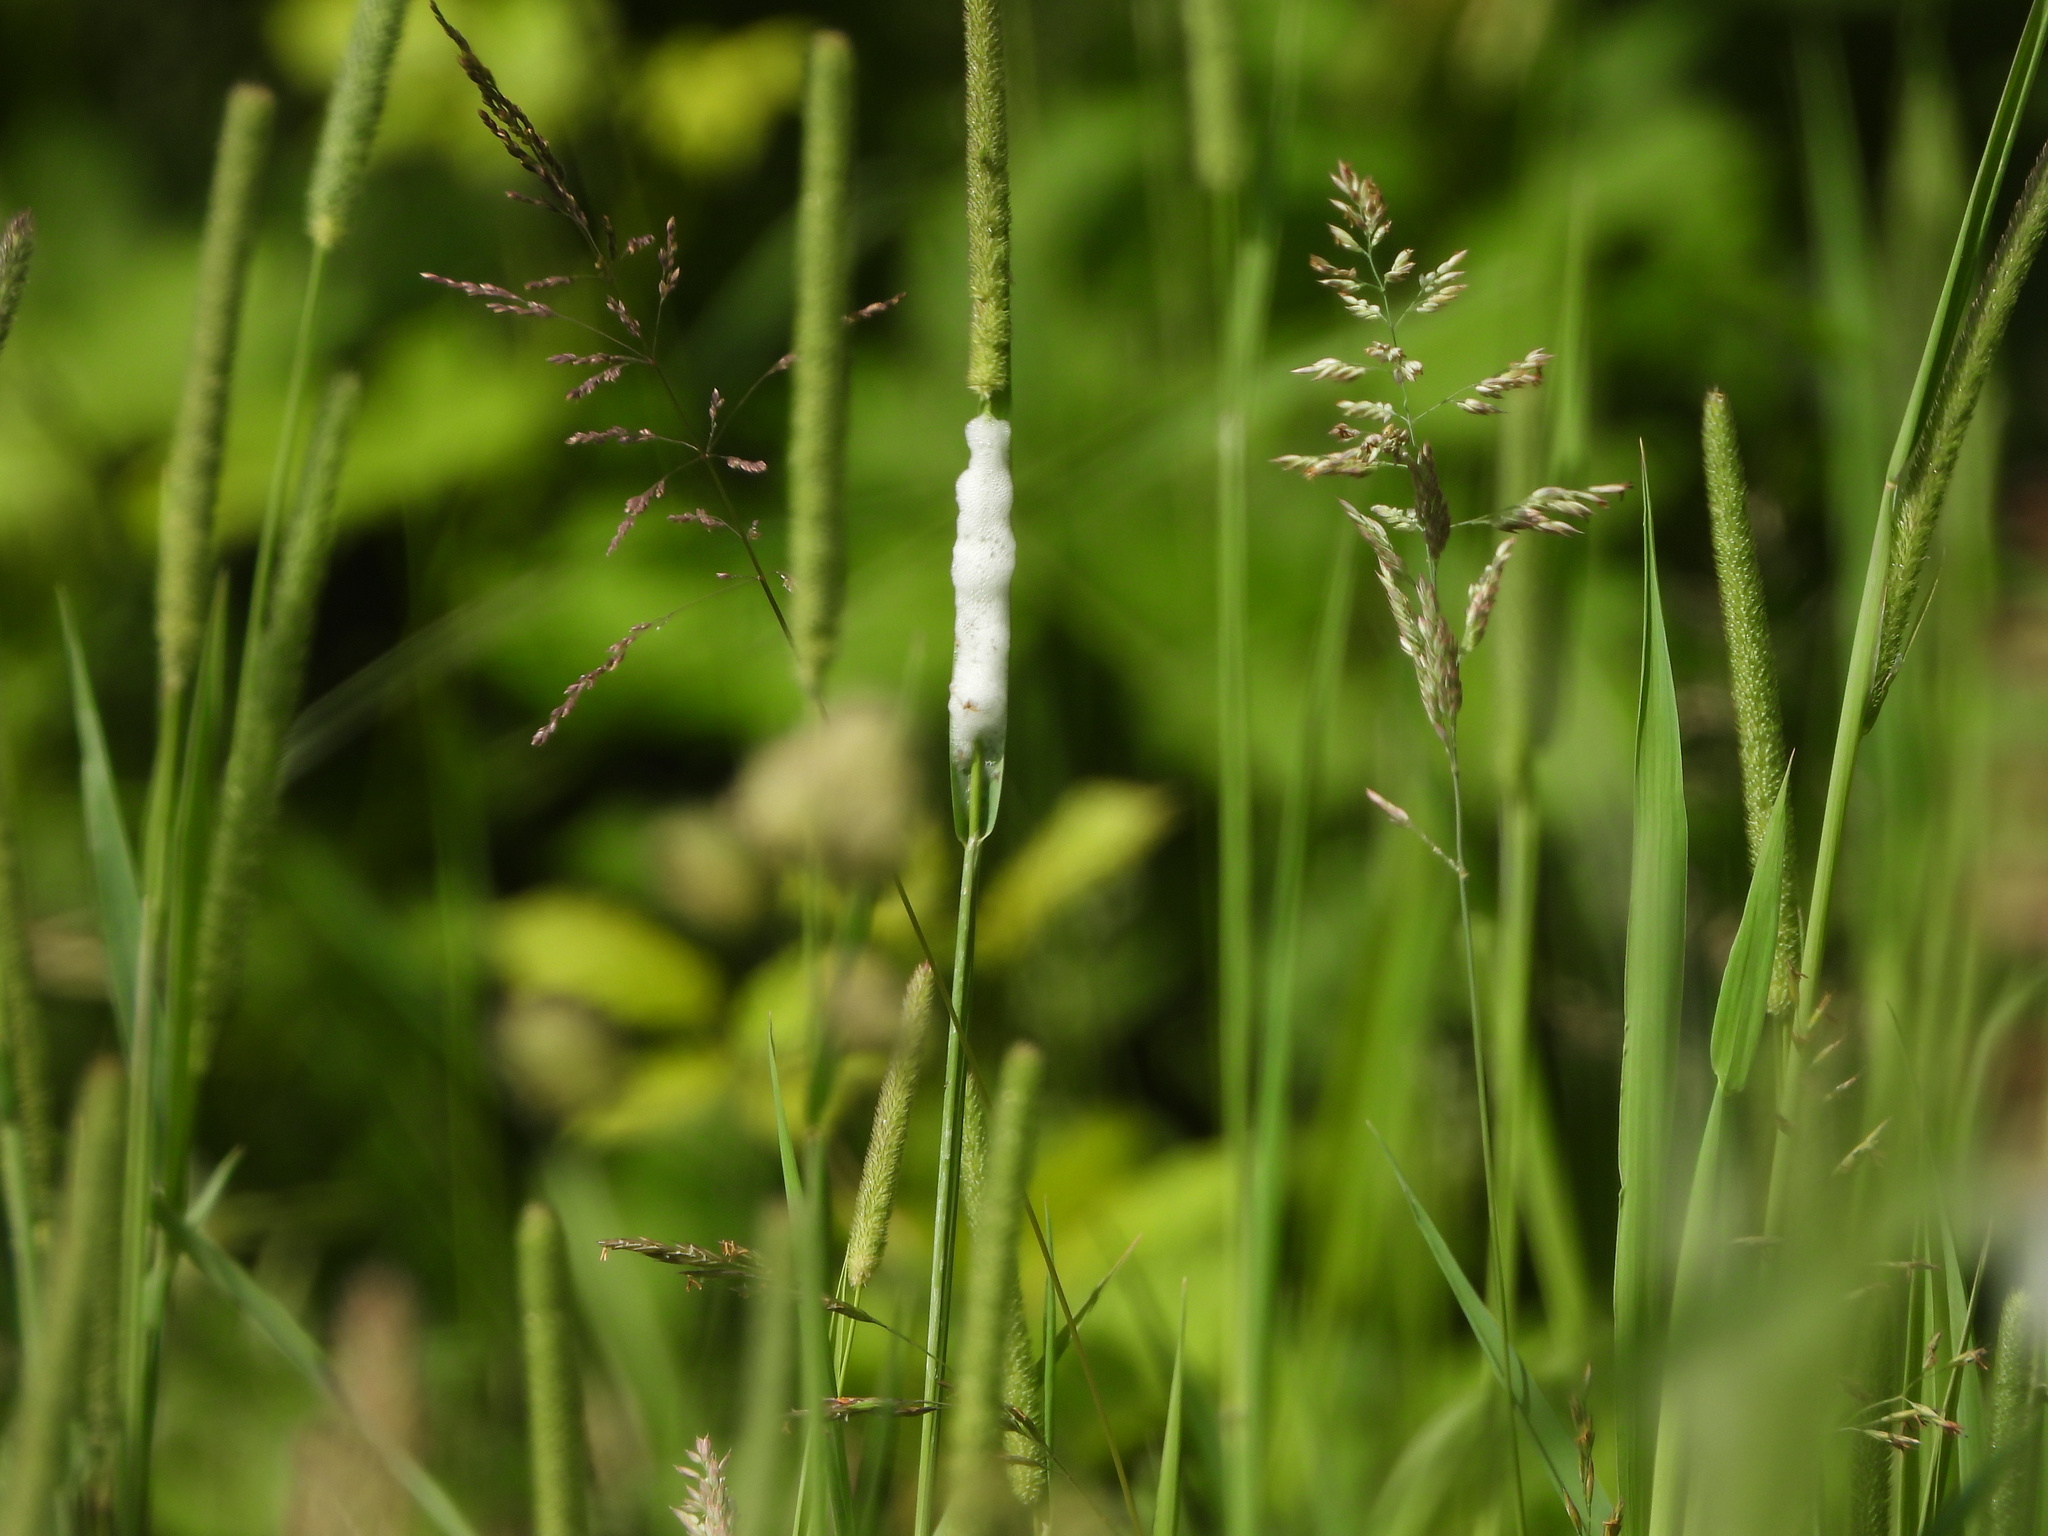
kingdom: Animalia
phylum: Arthropoda
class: Insecta
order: Hemiptera
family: Aphrophoridae
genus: Philaenus
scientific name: Philaenus spumarius
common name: Meadow spittlebug
